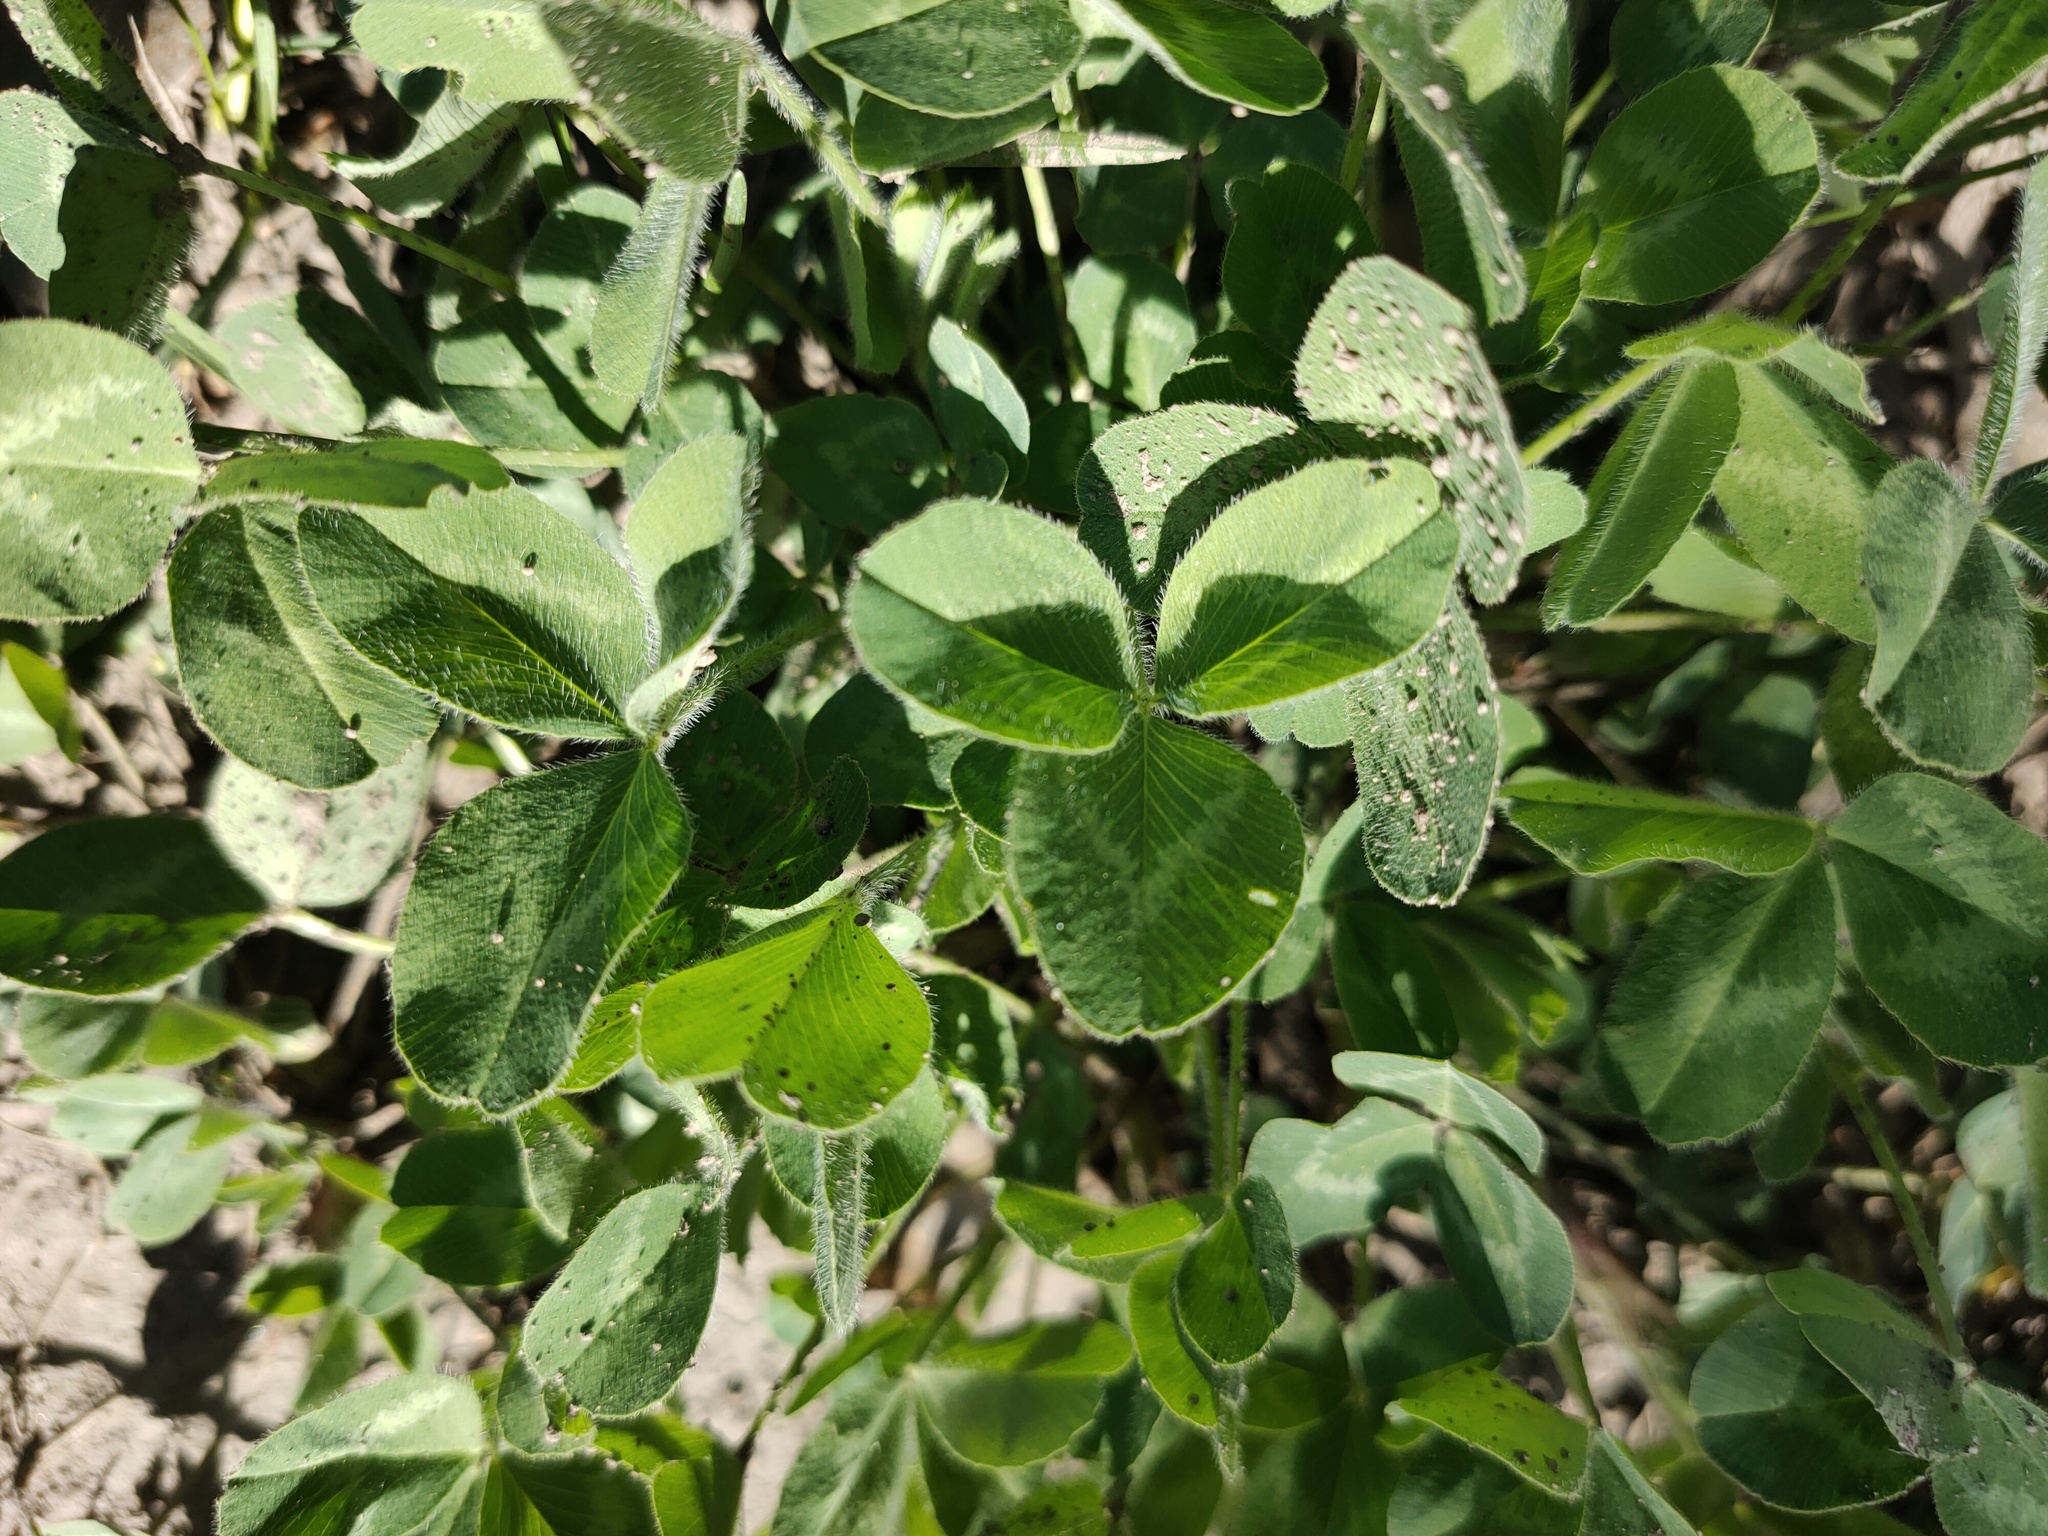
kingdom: Plantae
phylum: Tracheophyta
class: Magnoliopsida
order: Fabales
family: Fabaceae
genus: Trifolium
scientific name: Trifolium pratense
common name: Red clover
